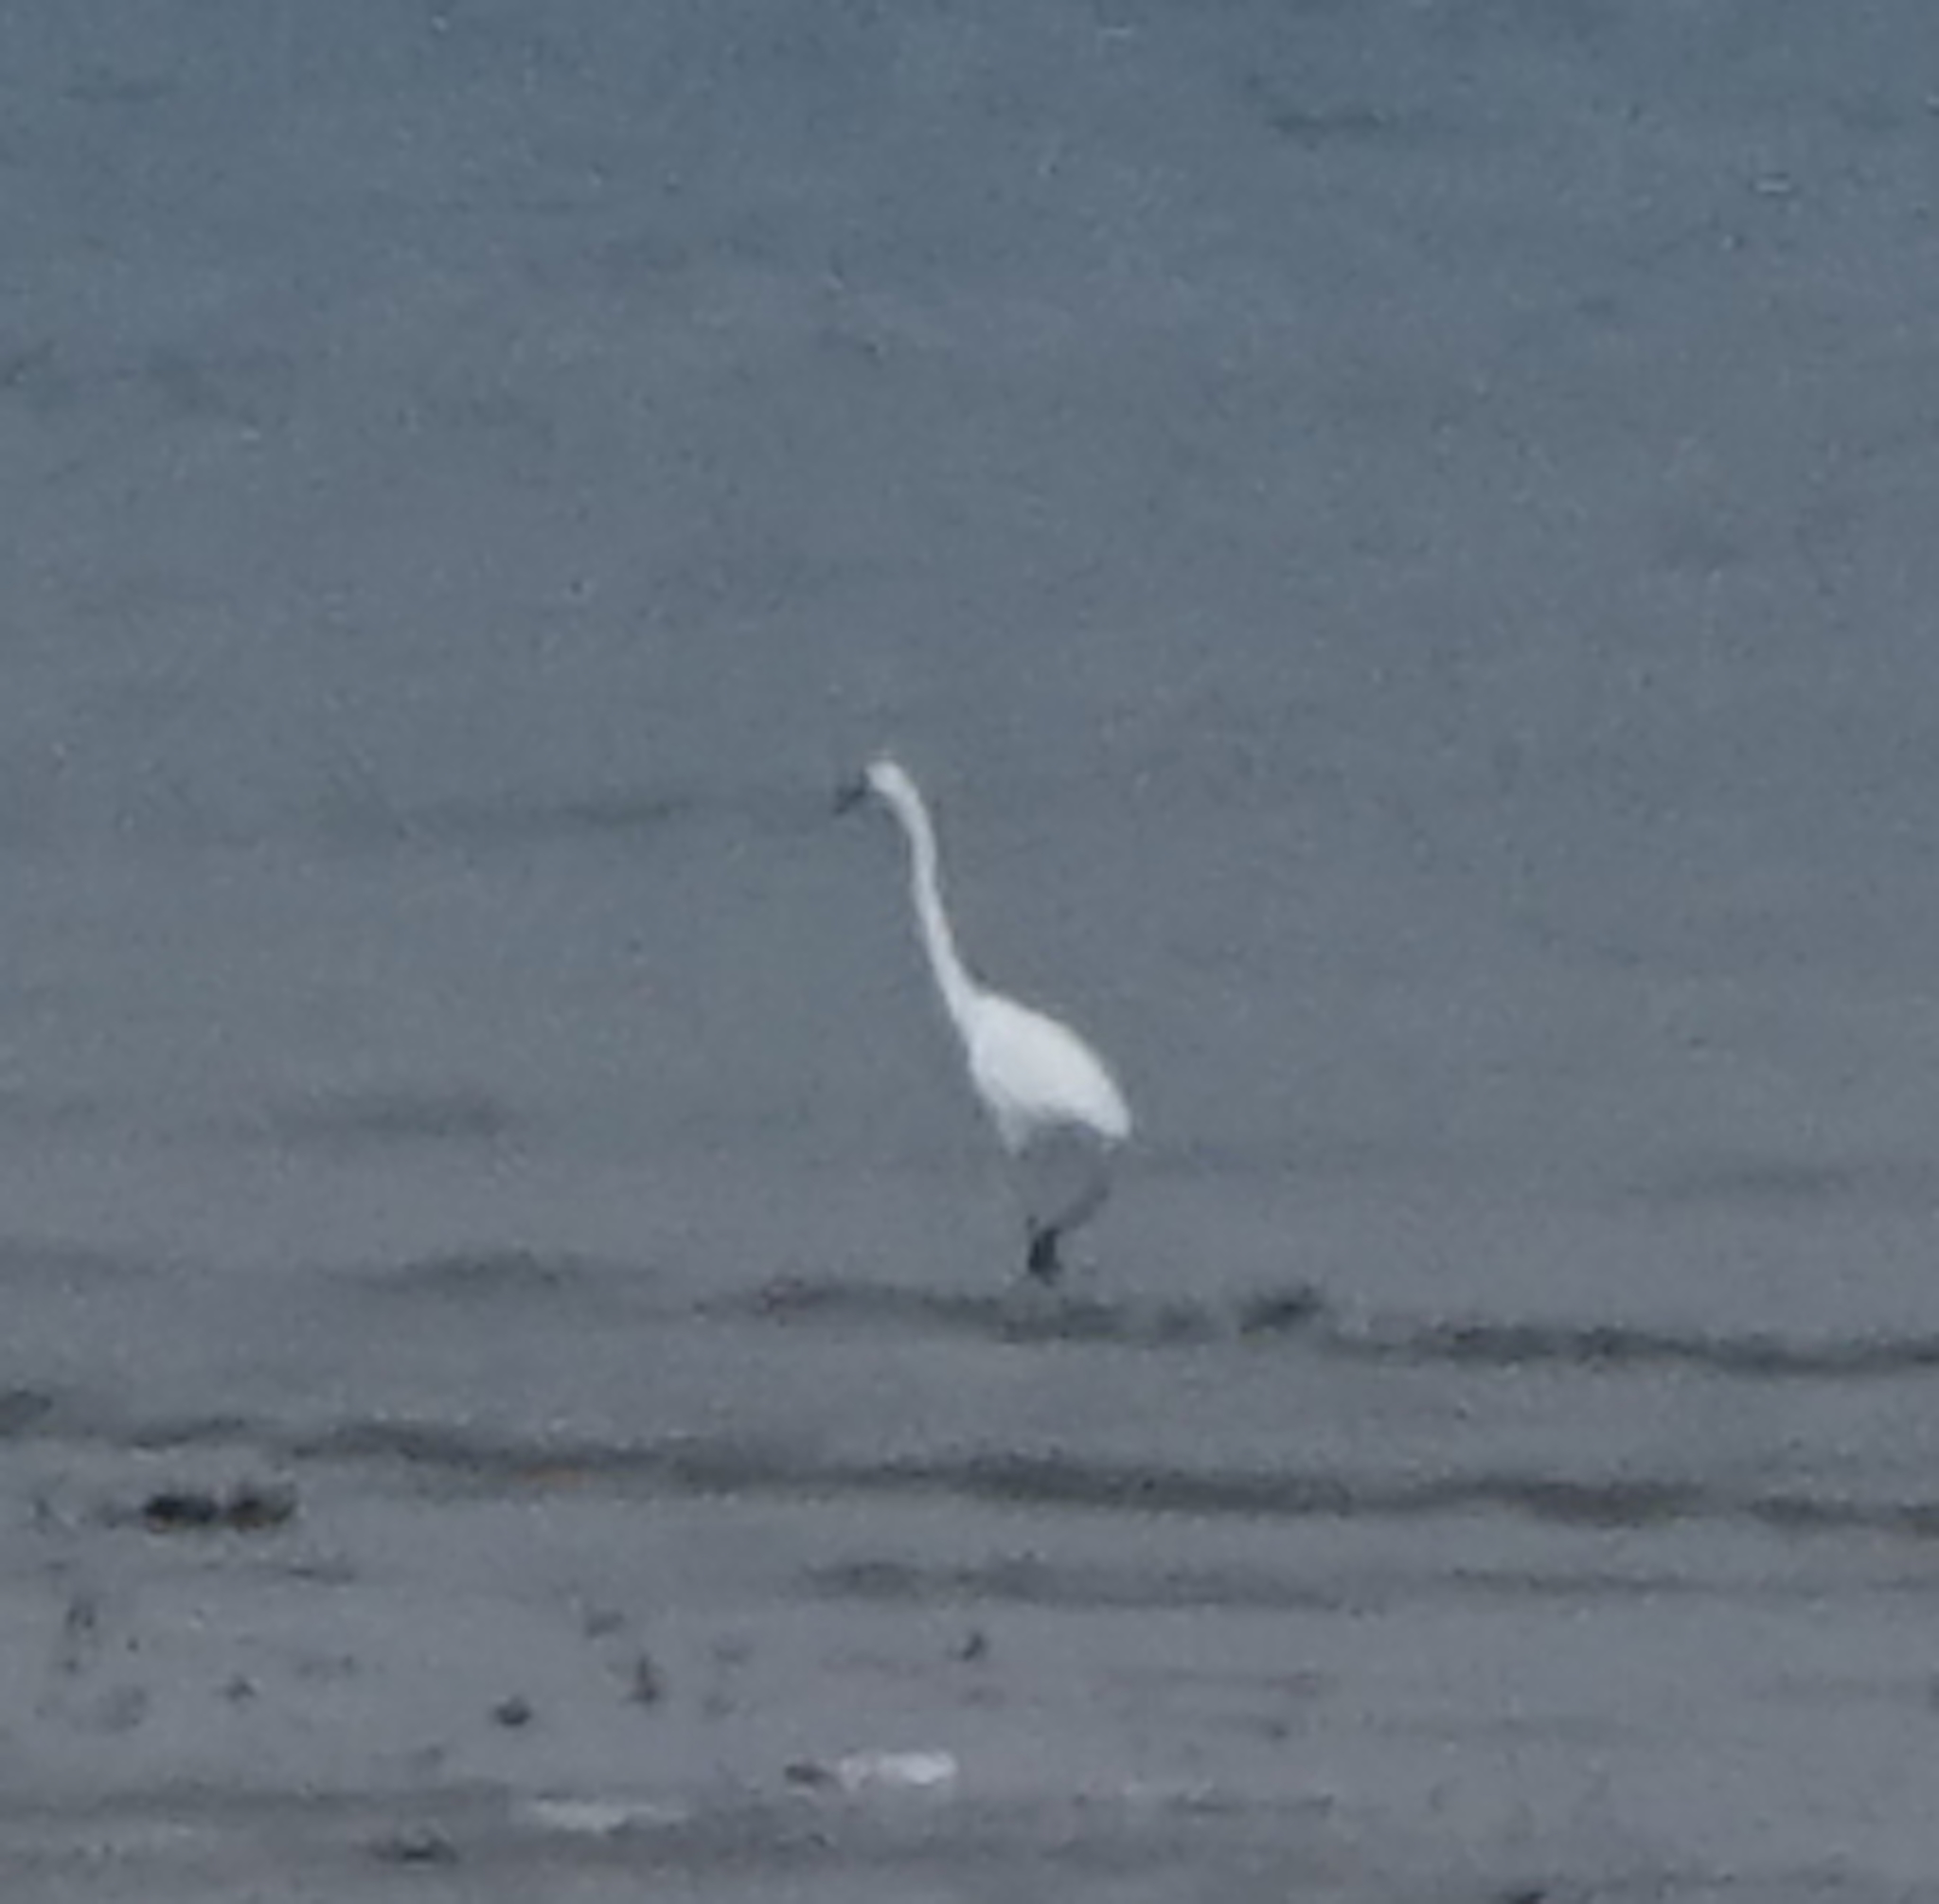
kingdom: Animalia
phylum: Chordata
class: Aves
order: Pelecaniformes
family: Ardeidae
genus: Ardea
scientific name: Ardea alba
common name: Great egret
